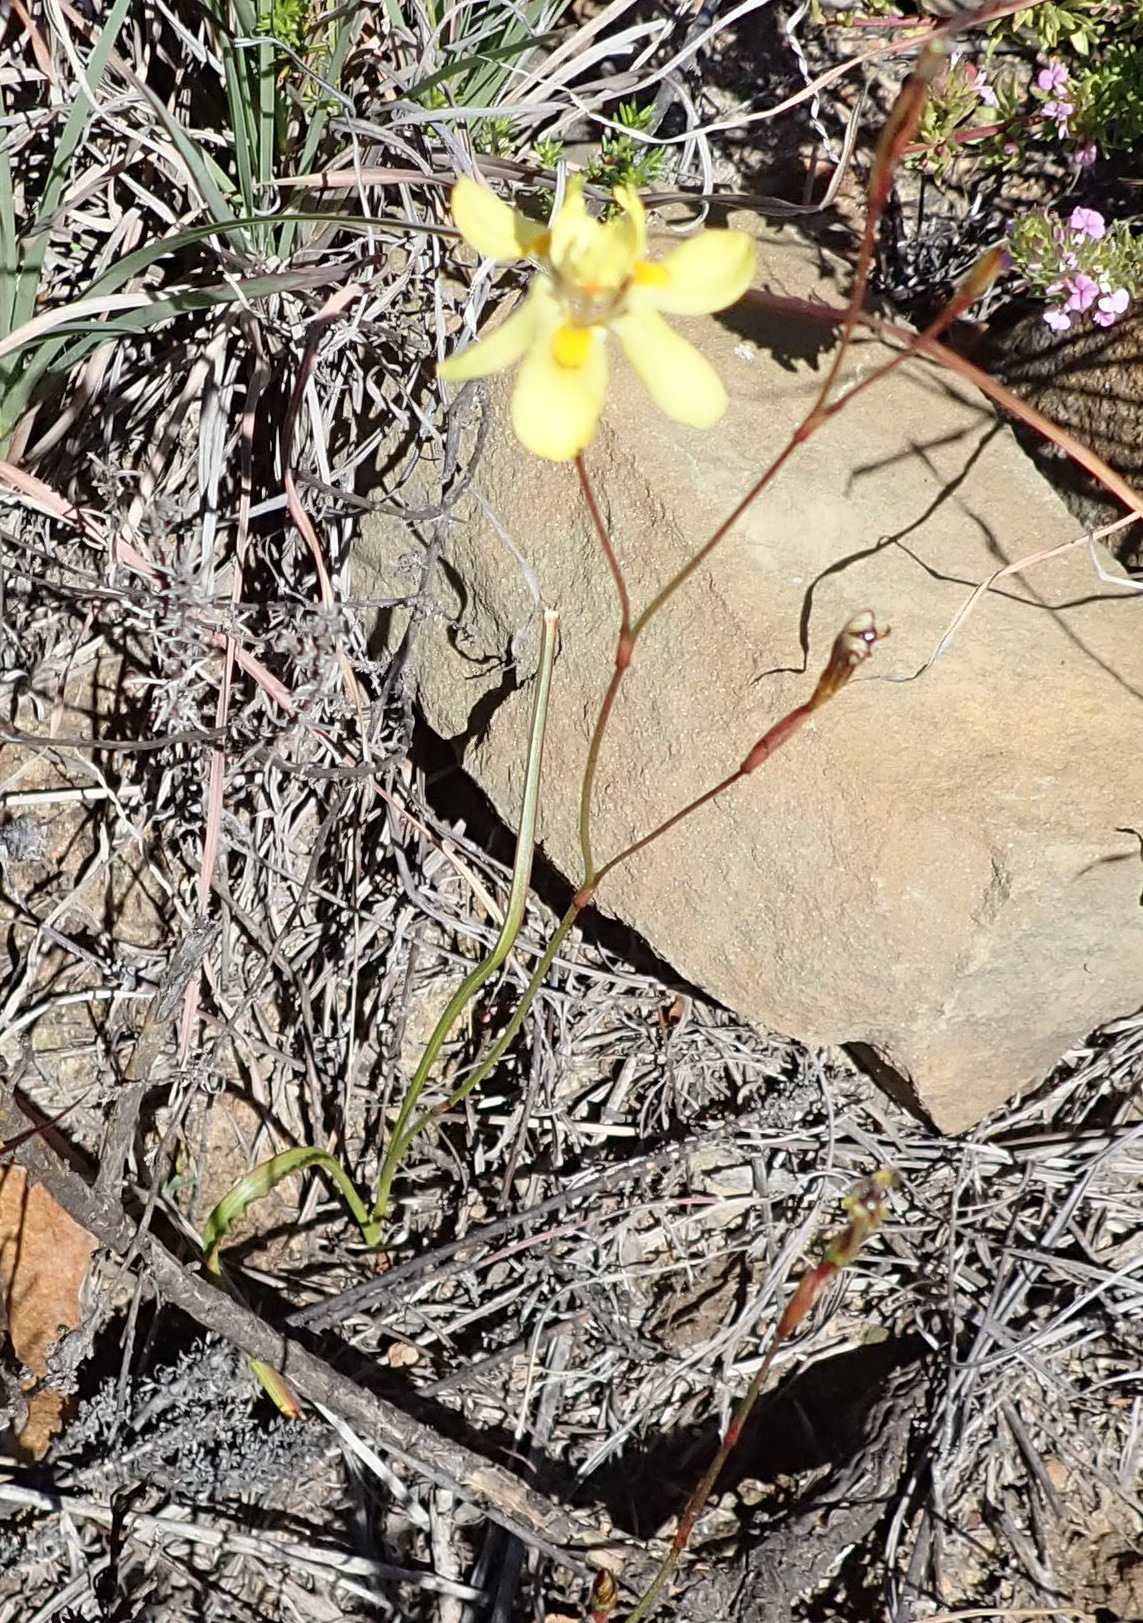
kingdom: Plantae
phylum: Tracheophyta
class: Liliopsida
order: Asparagales
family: Iridaceae
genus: Moraea
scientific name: Moraea gawleri
